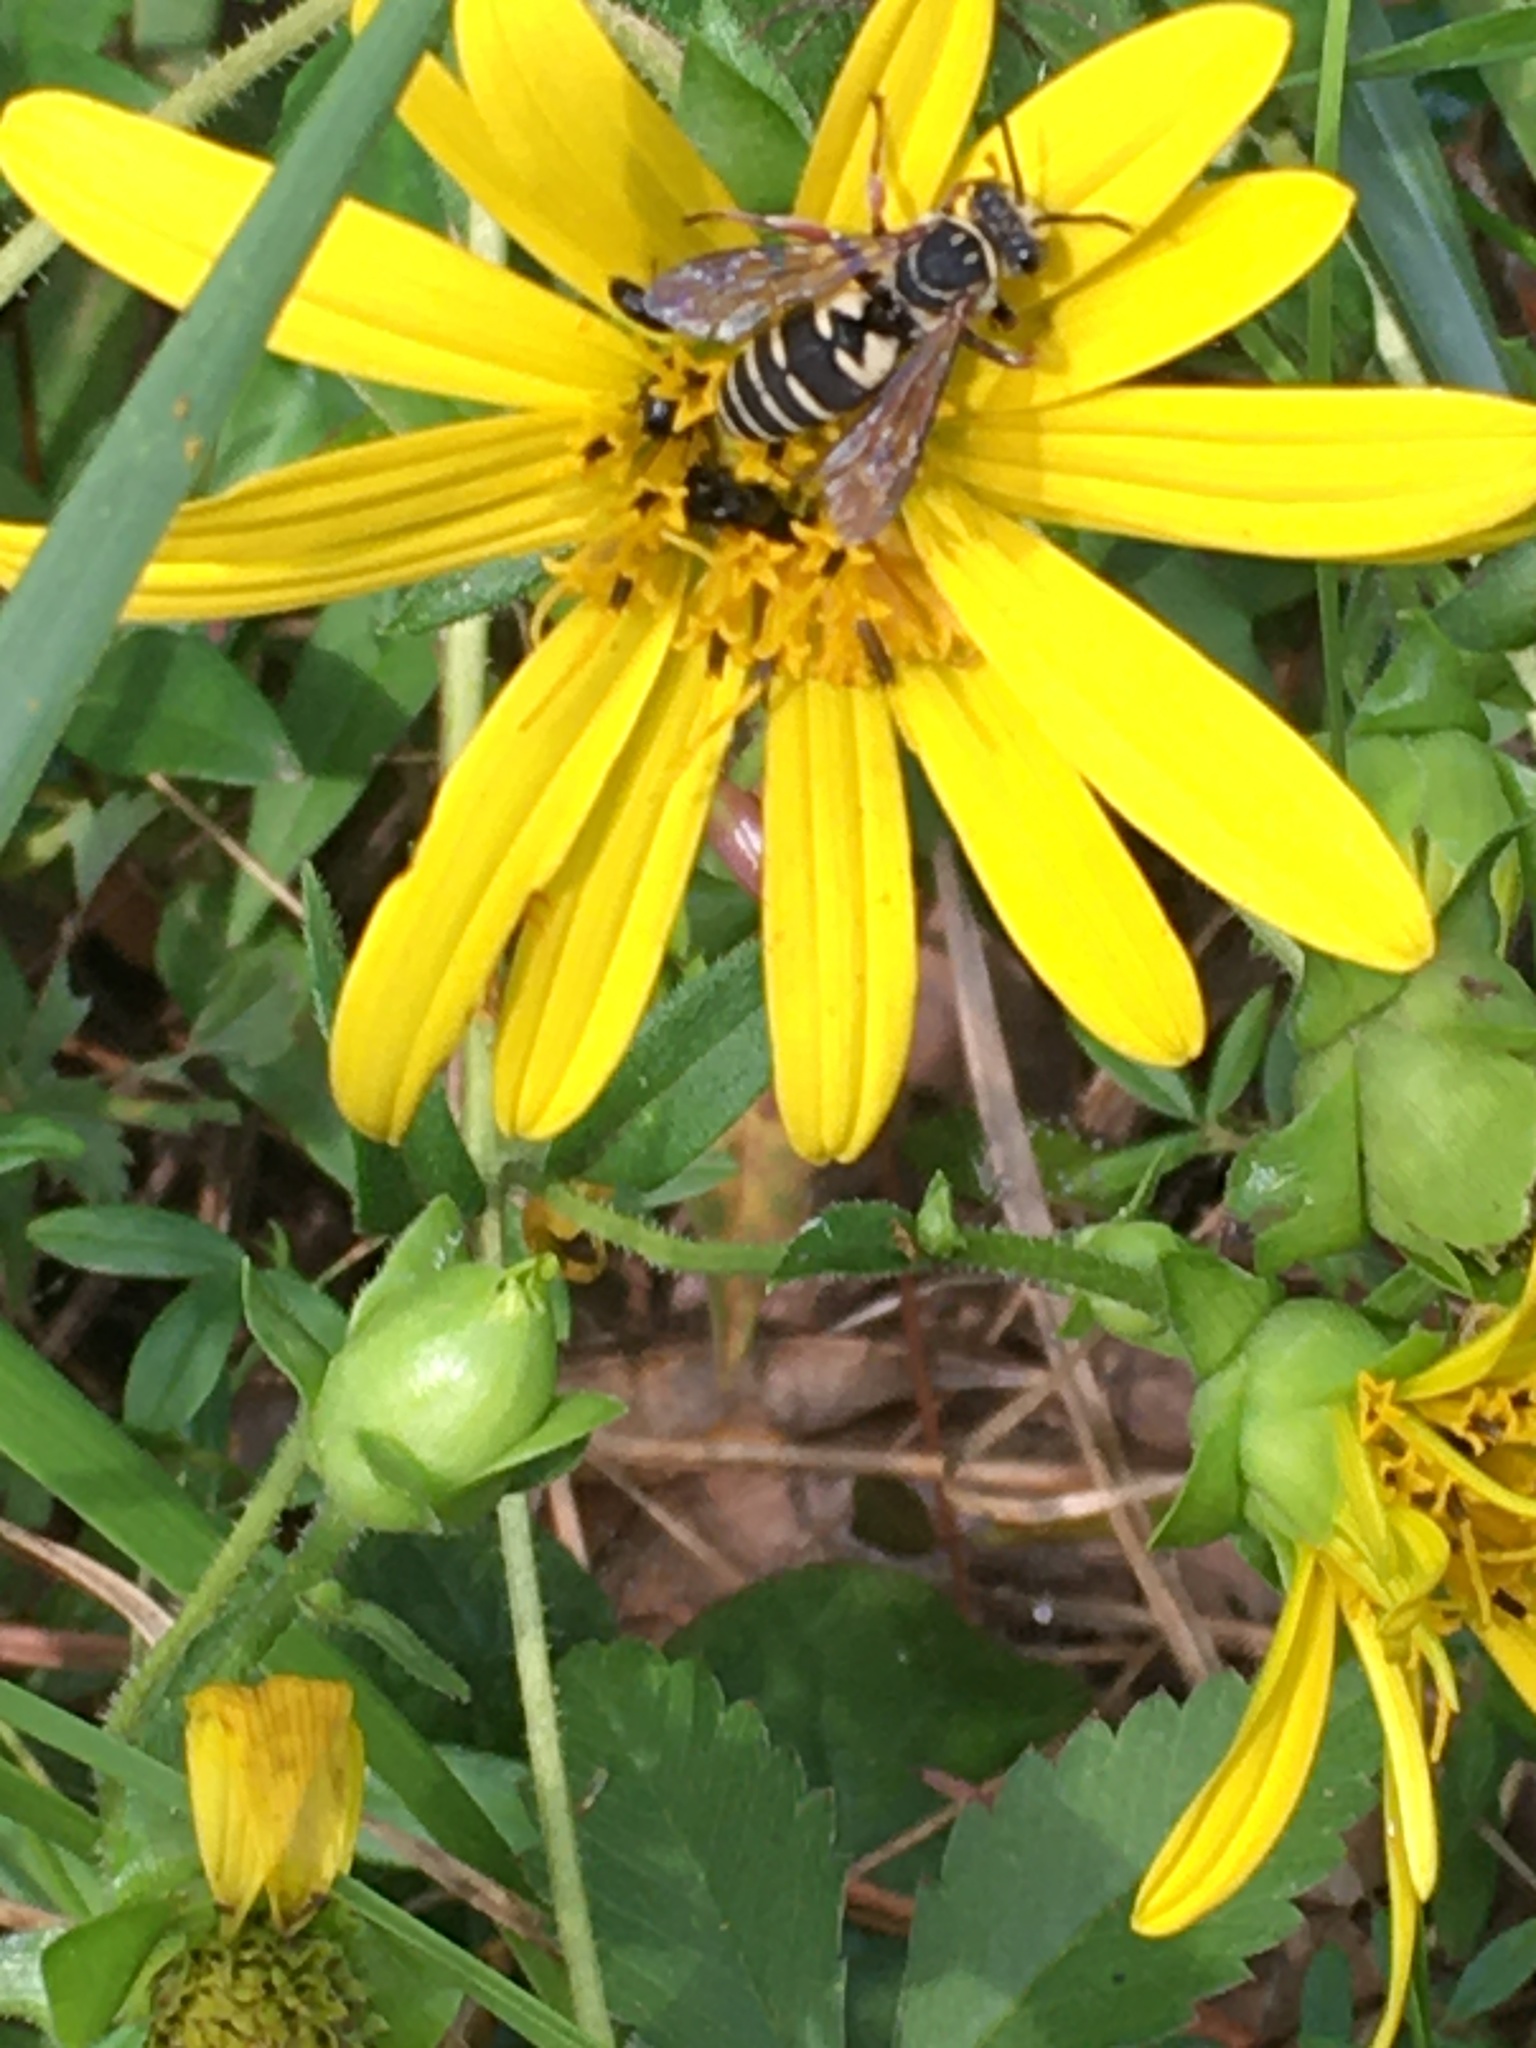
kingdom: Animalia
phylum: Arthropoda
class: Insecta
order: Hymenoptera
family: Apidae
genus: Triepeolus
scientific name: Triepeolus lunatus
